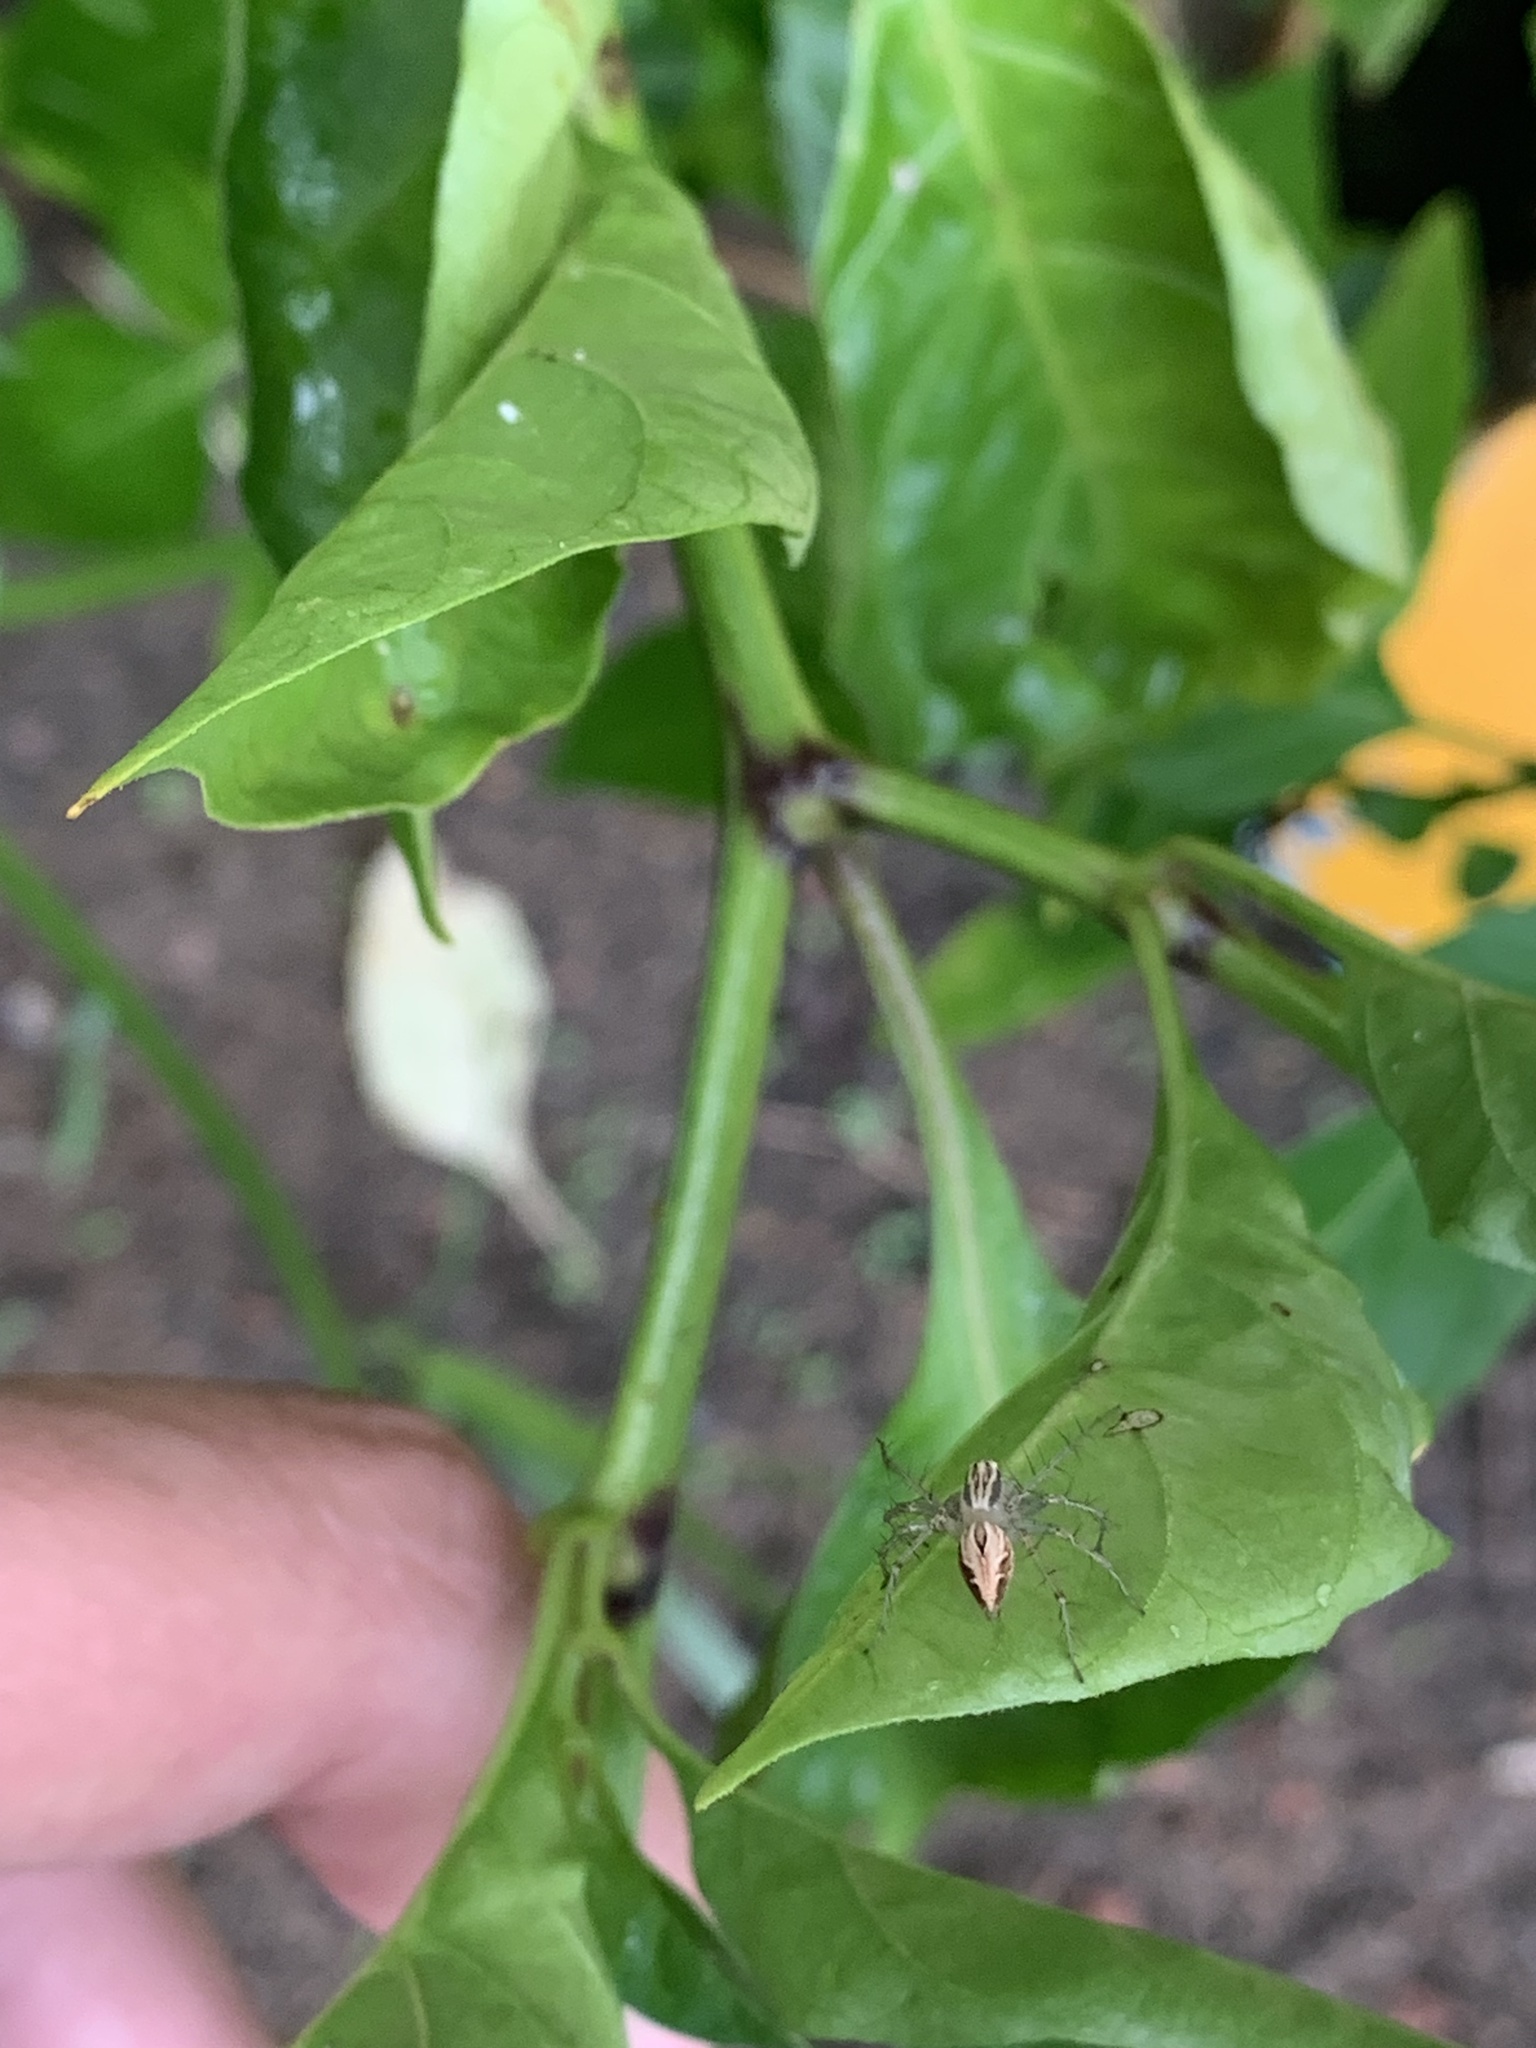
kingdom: Animalia
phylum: Arthropoda
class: Arachnida
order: Araneae
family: Oxyopidae
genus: Oxyopes
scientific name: Oxyopes salticus
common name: Lynx spiders
